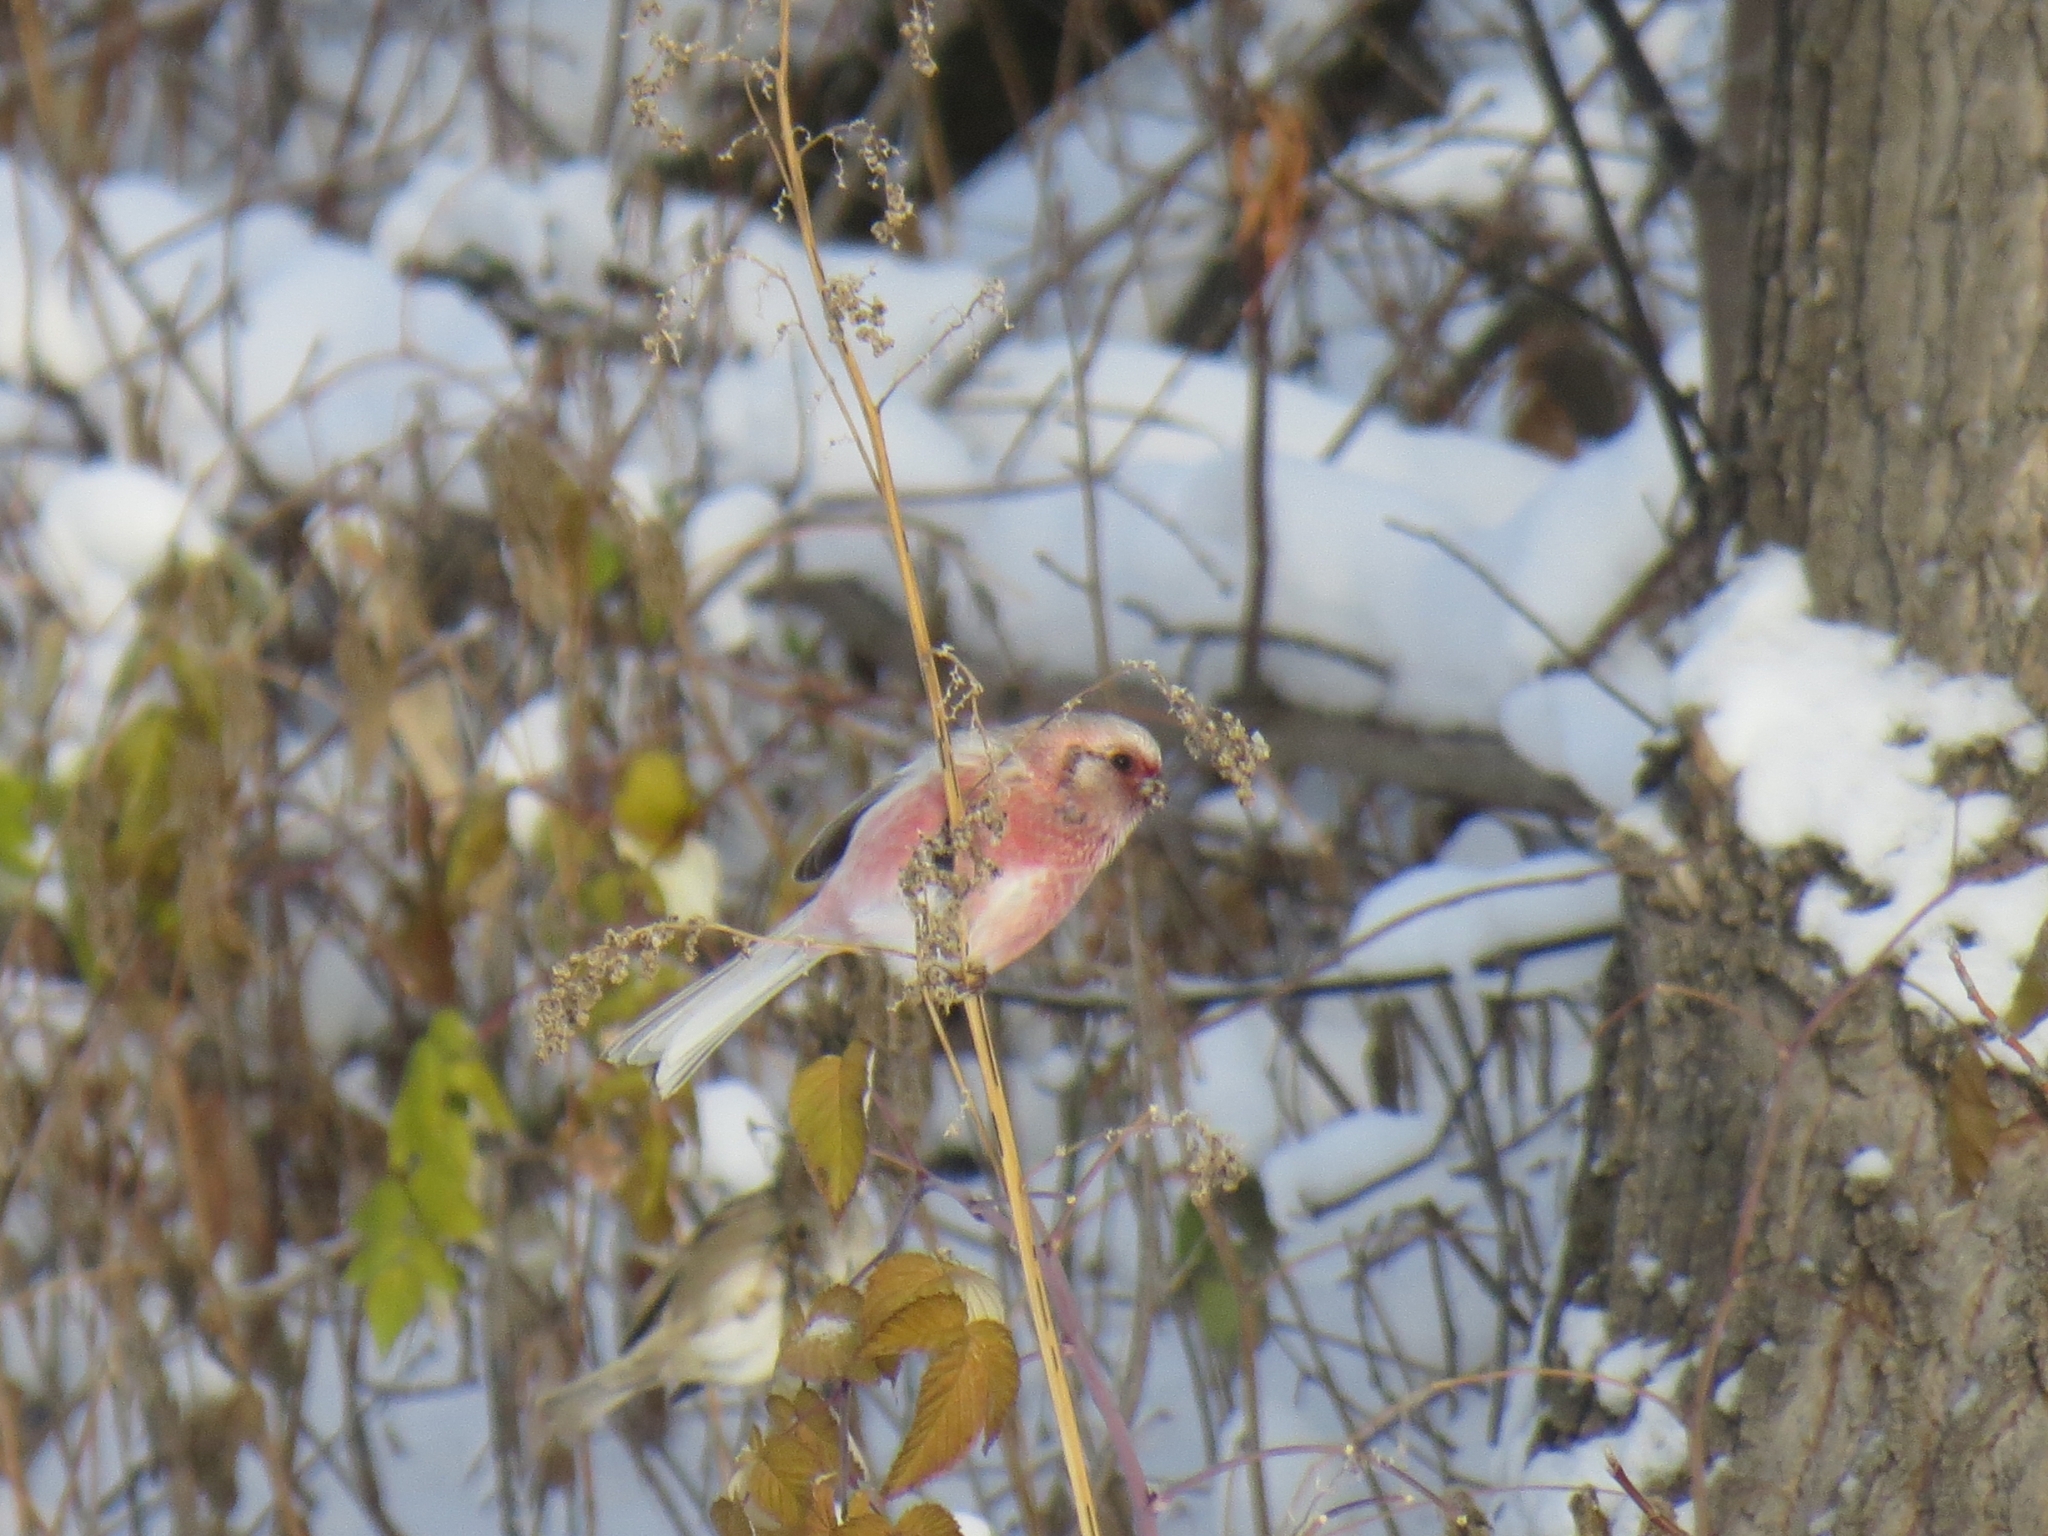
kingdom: Animalia
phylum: Chordata
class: Aves
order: Passeriformes
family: Fringillidae
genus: Carpodacus
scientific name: Carpodacus sibiricus
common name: Long-tailed rosefinch
